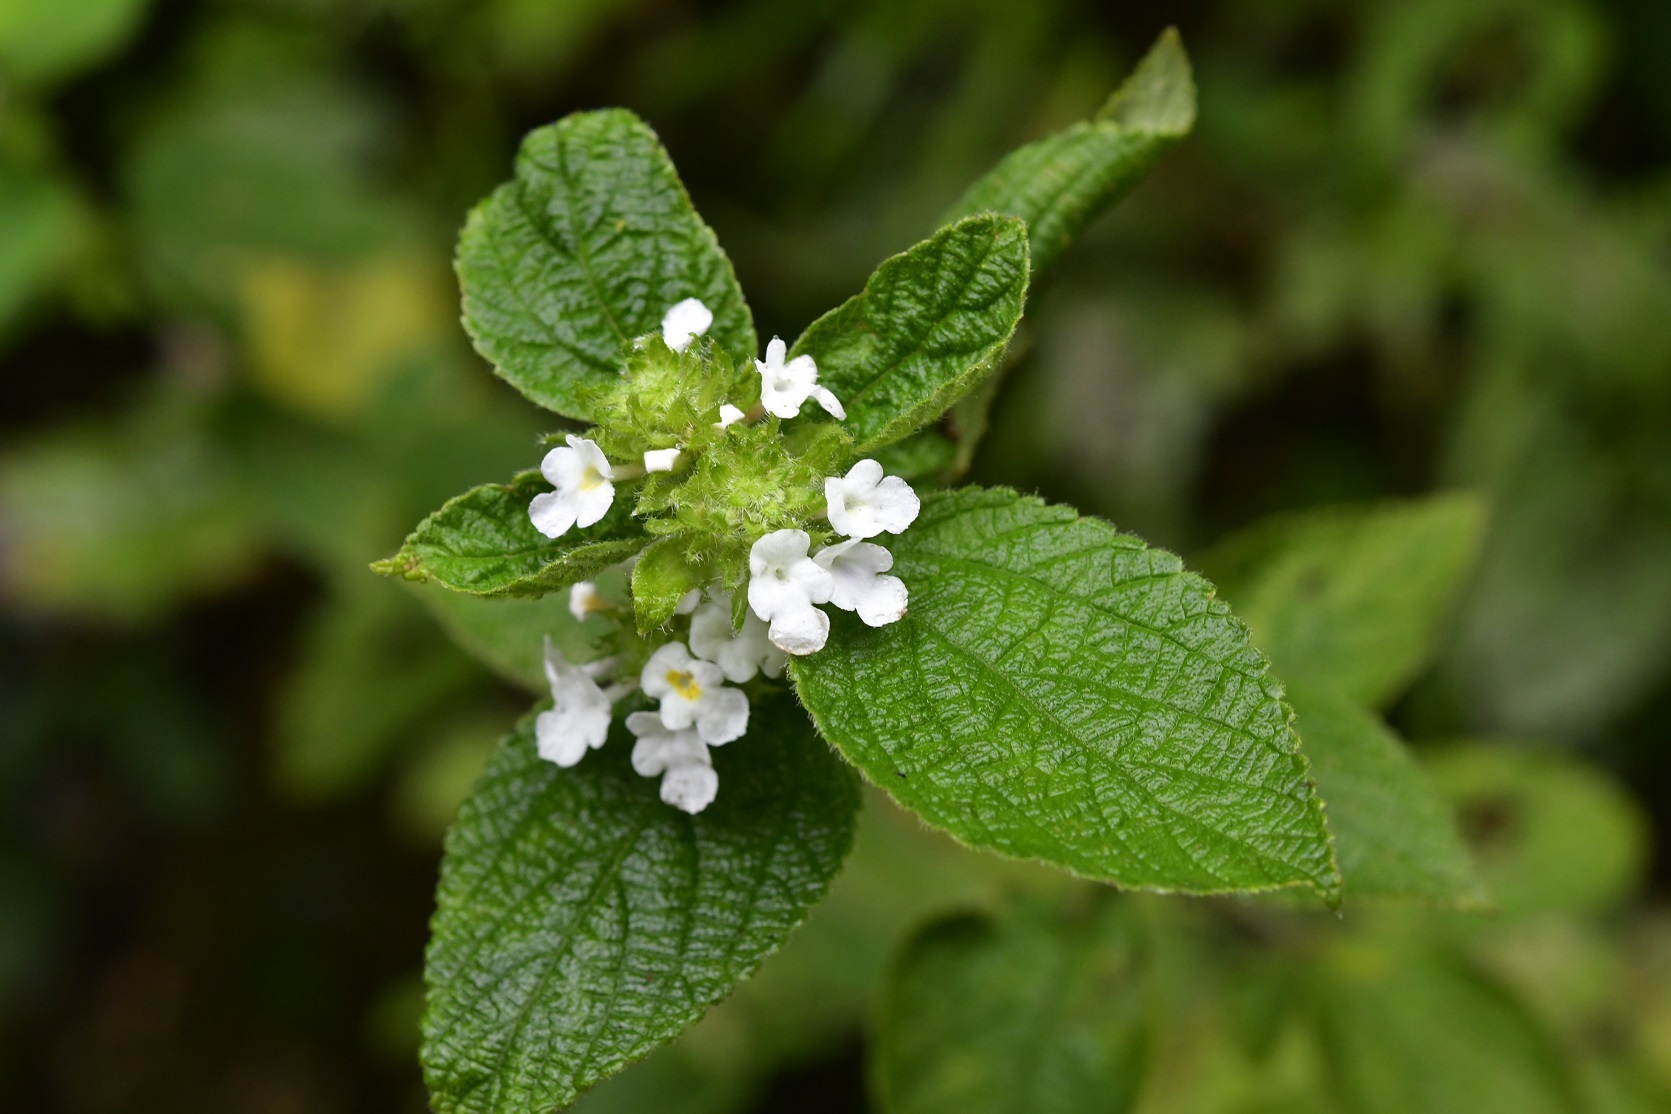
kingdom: Plantae
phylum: Tracheophyta
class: Magnoliopsida
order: Lamiales
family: Verbenaceae
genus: Lantana
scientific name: Lantana velutina
